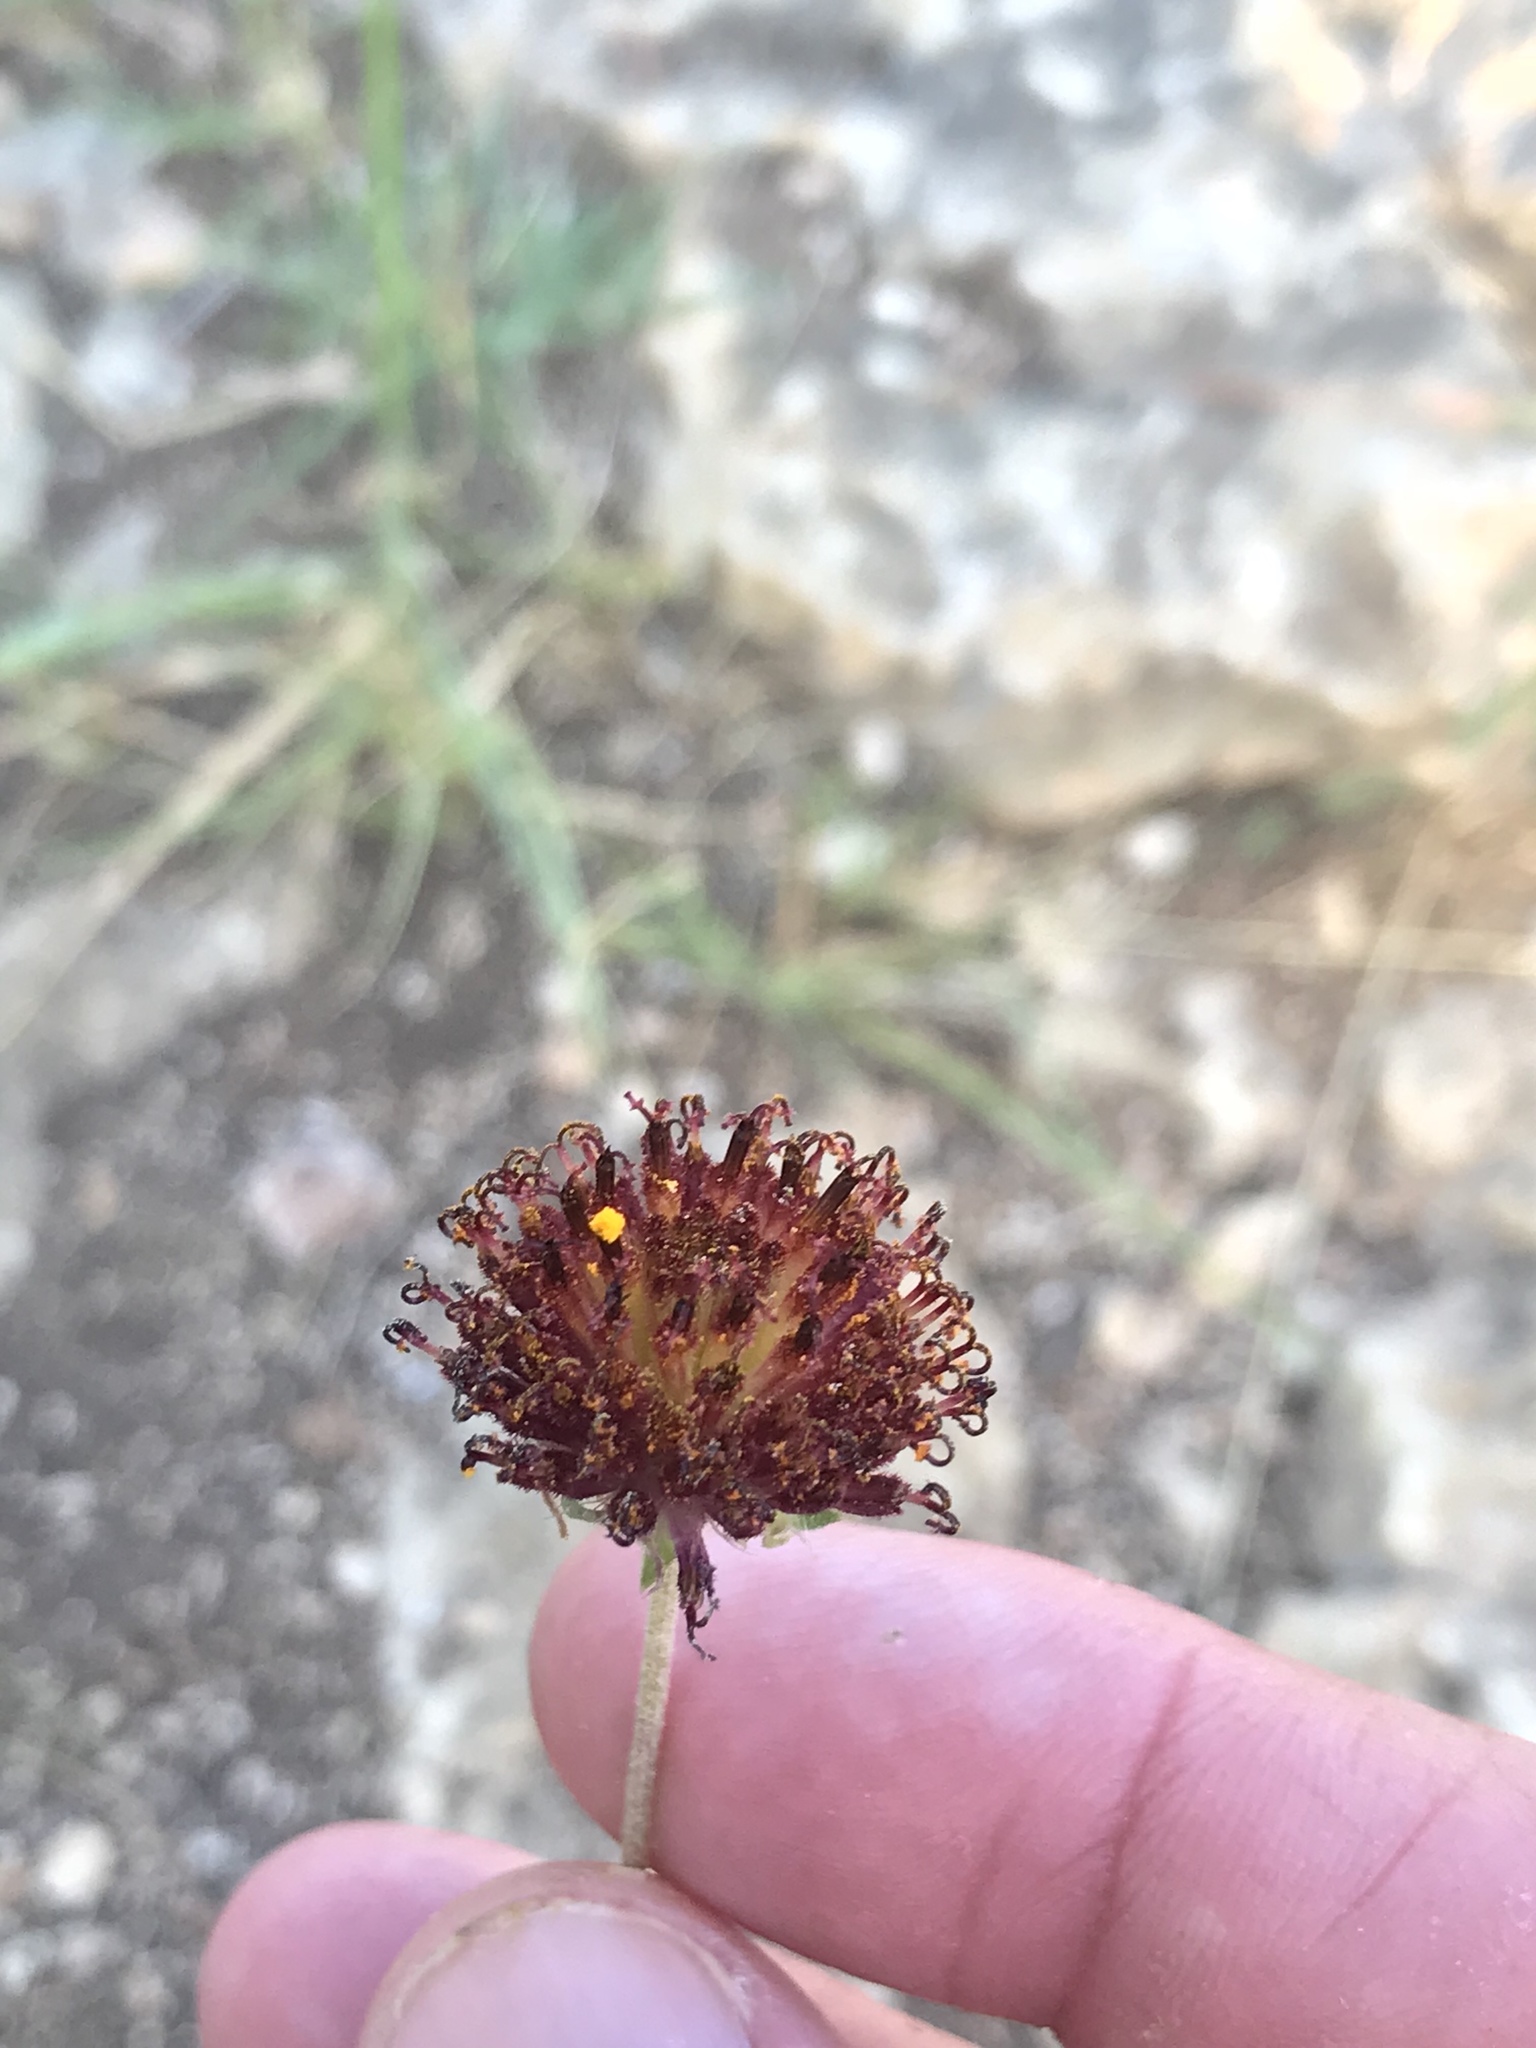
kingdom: Plantae
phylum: Tracheophyta
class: Magnoliopsida
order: Asterales
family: Asteraceae
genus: Gaillardia
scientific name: Gaillardia suavis
